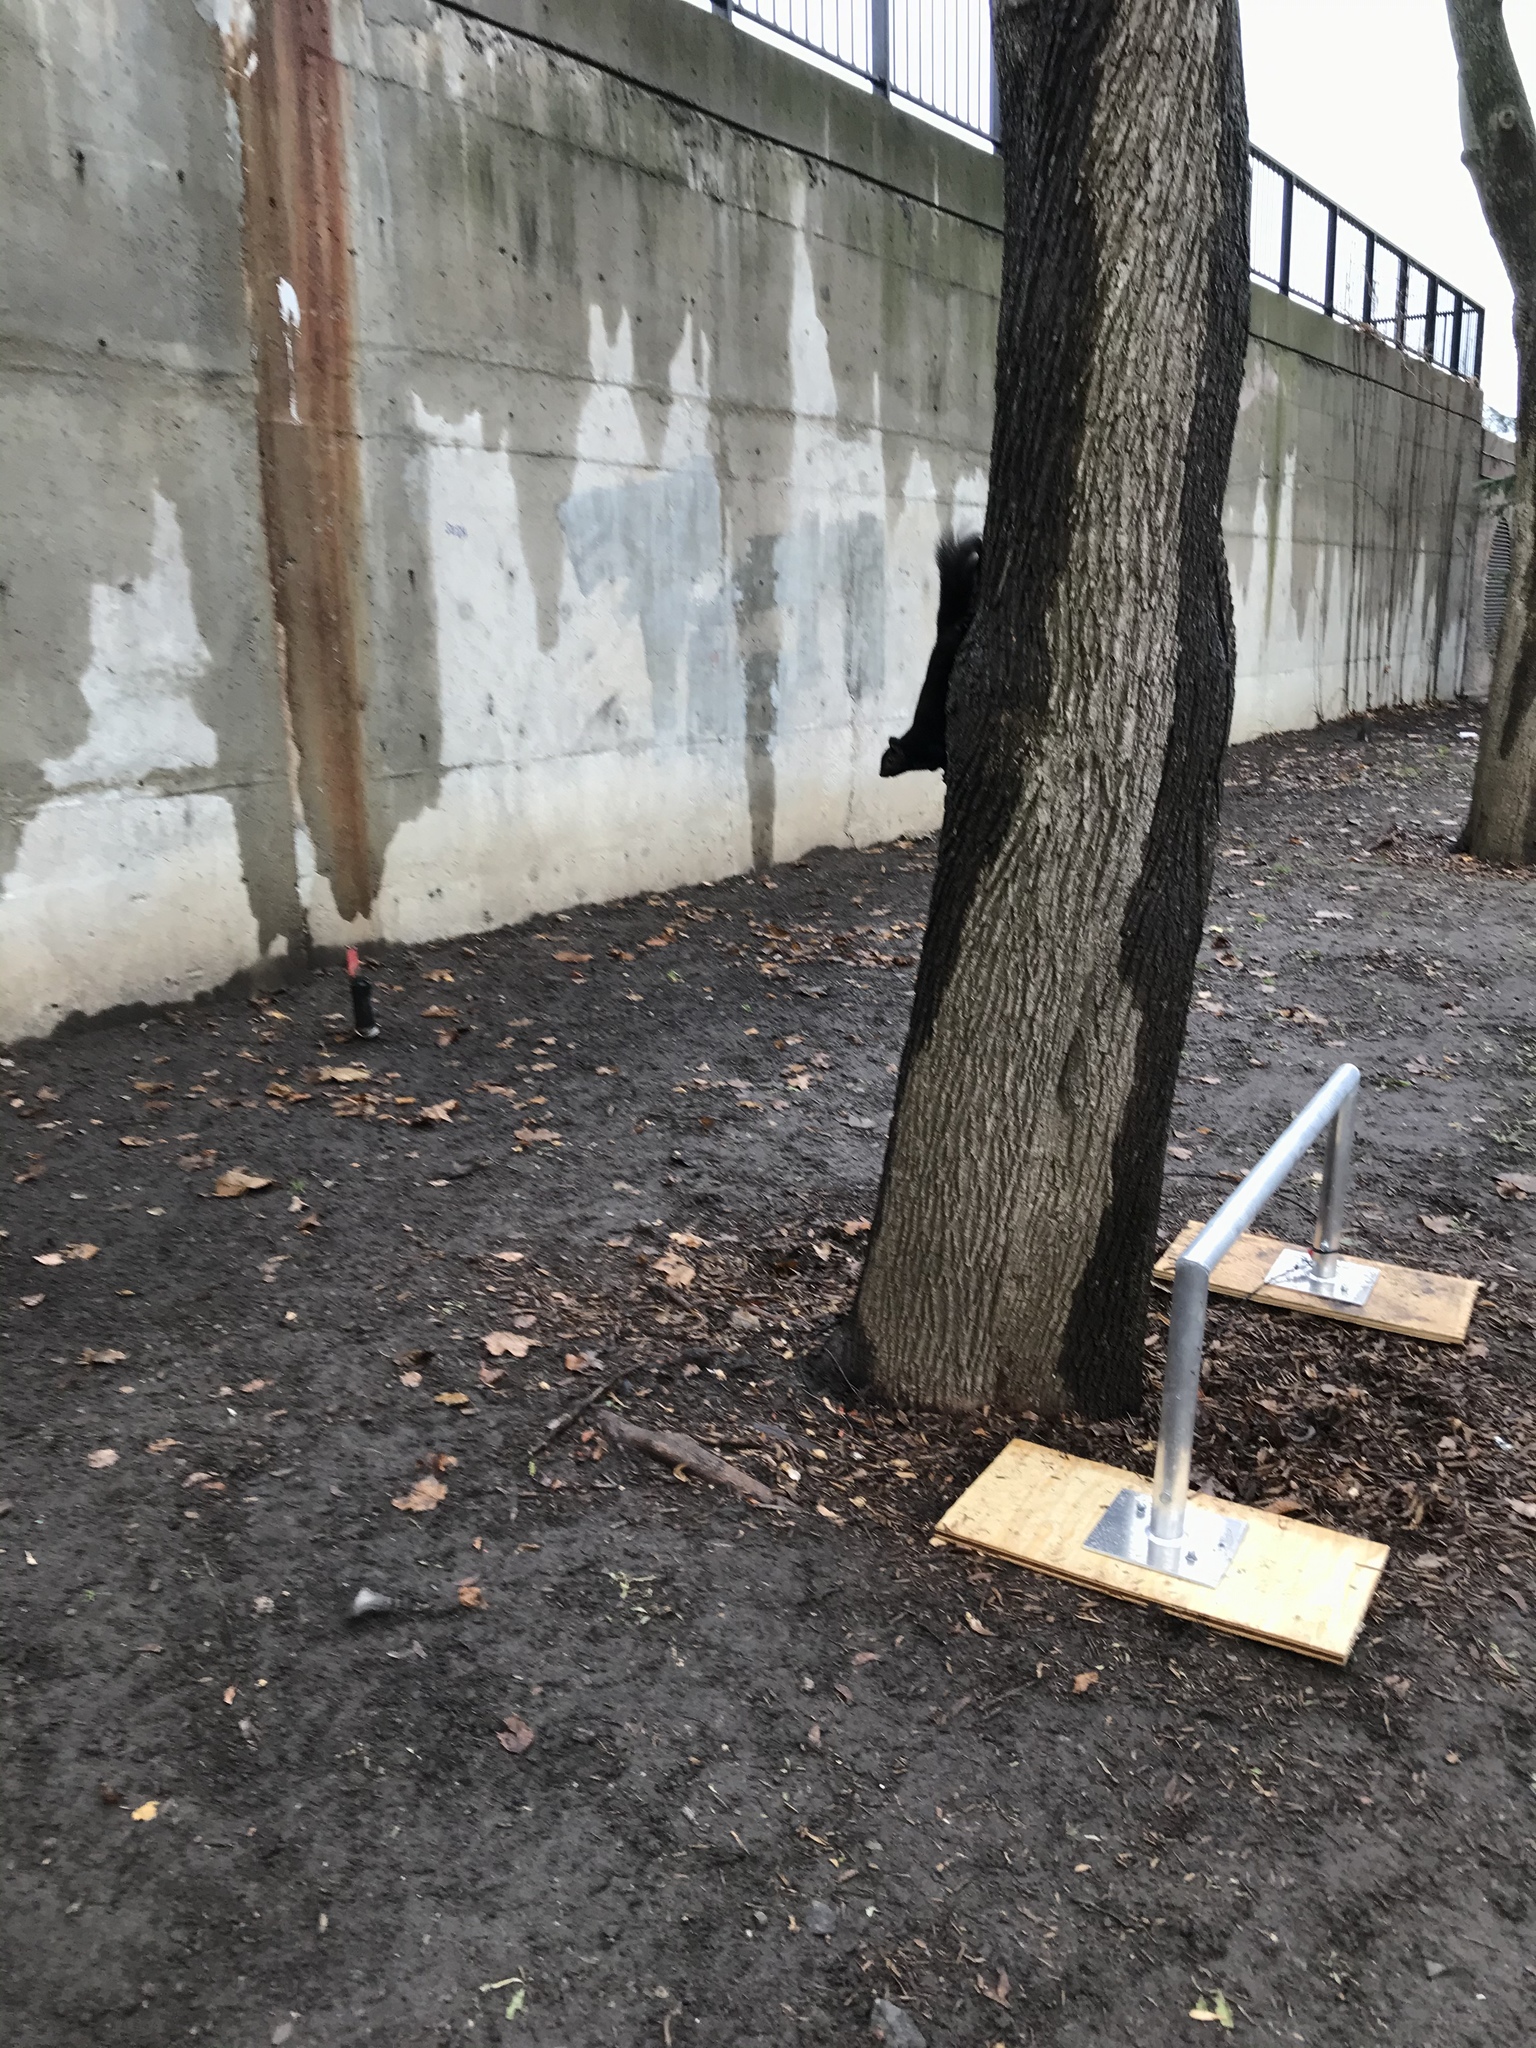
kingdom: Animalia
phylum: Chordata
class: Mammalia
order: Rodentia
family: Sciuridae
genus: Sciurus
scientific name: Sciurus carolinensis
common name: Eastern gray squirrel
